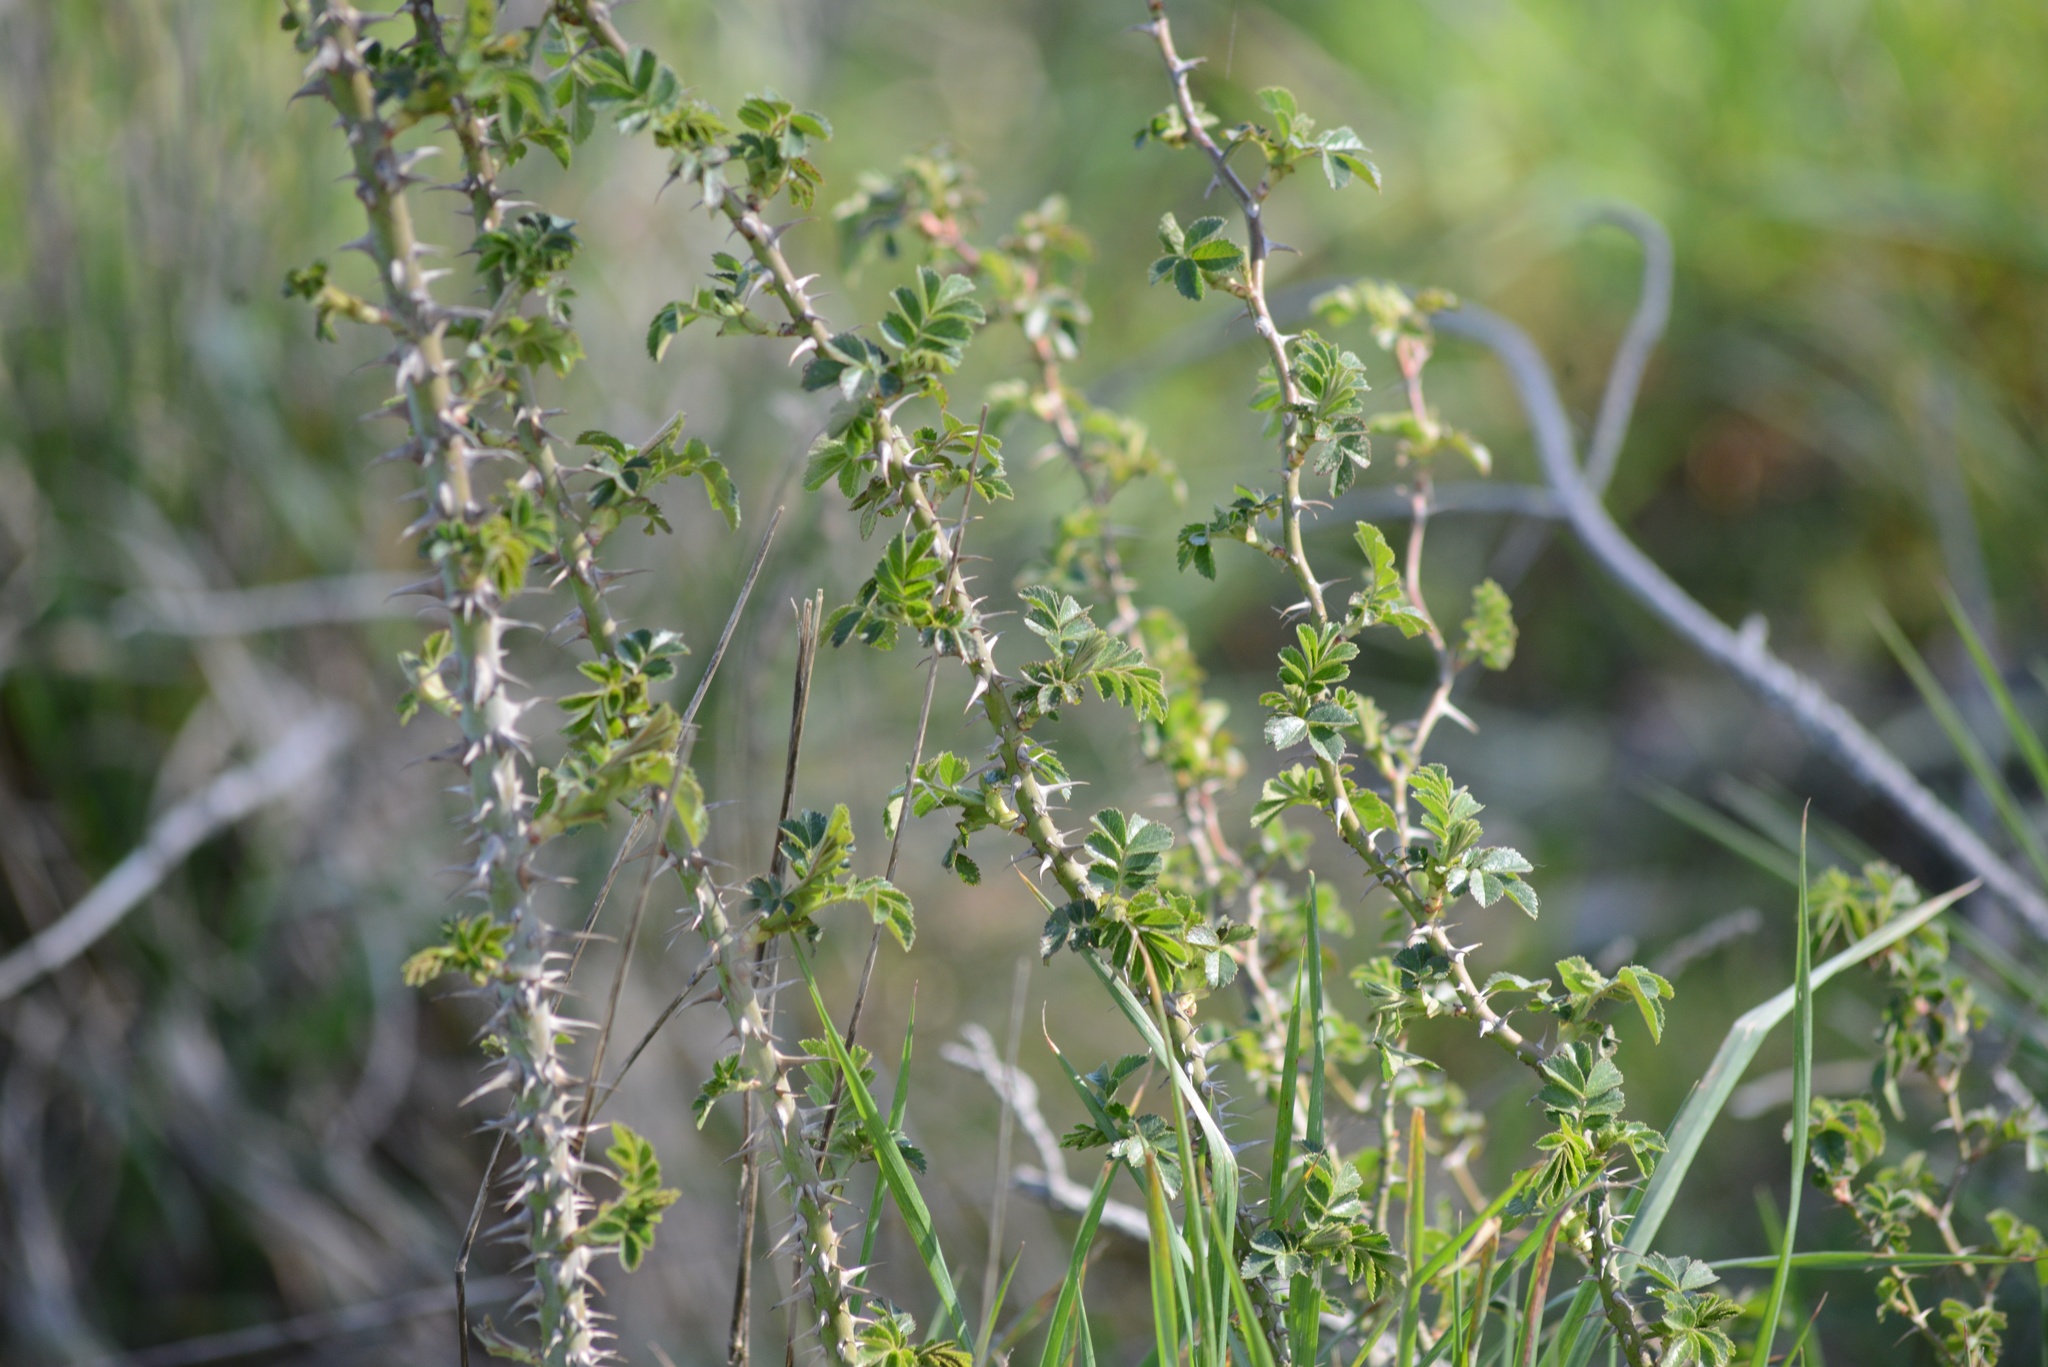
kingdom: Plantae
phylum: Tracheophyta
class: Magnoliopsida
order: Rosales
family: Rosaceae
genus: Rosa
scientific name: Rosa rubiginosa
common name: Sweet-briar
